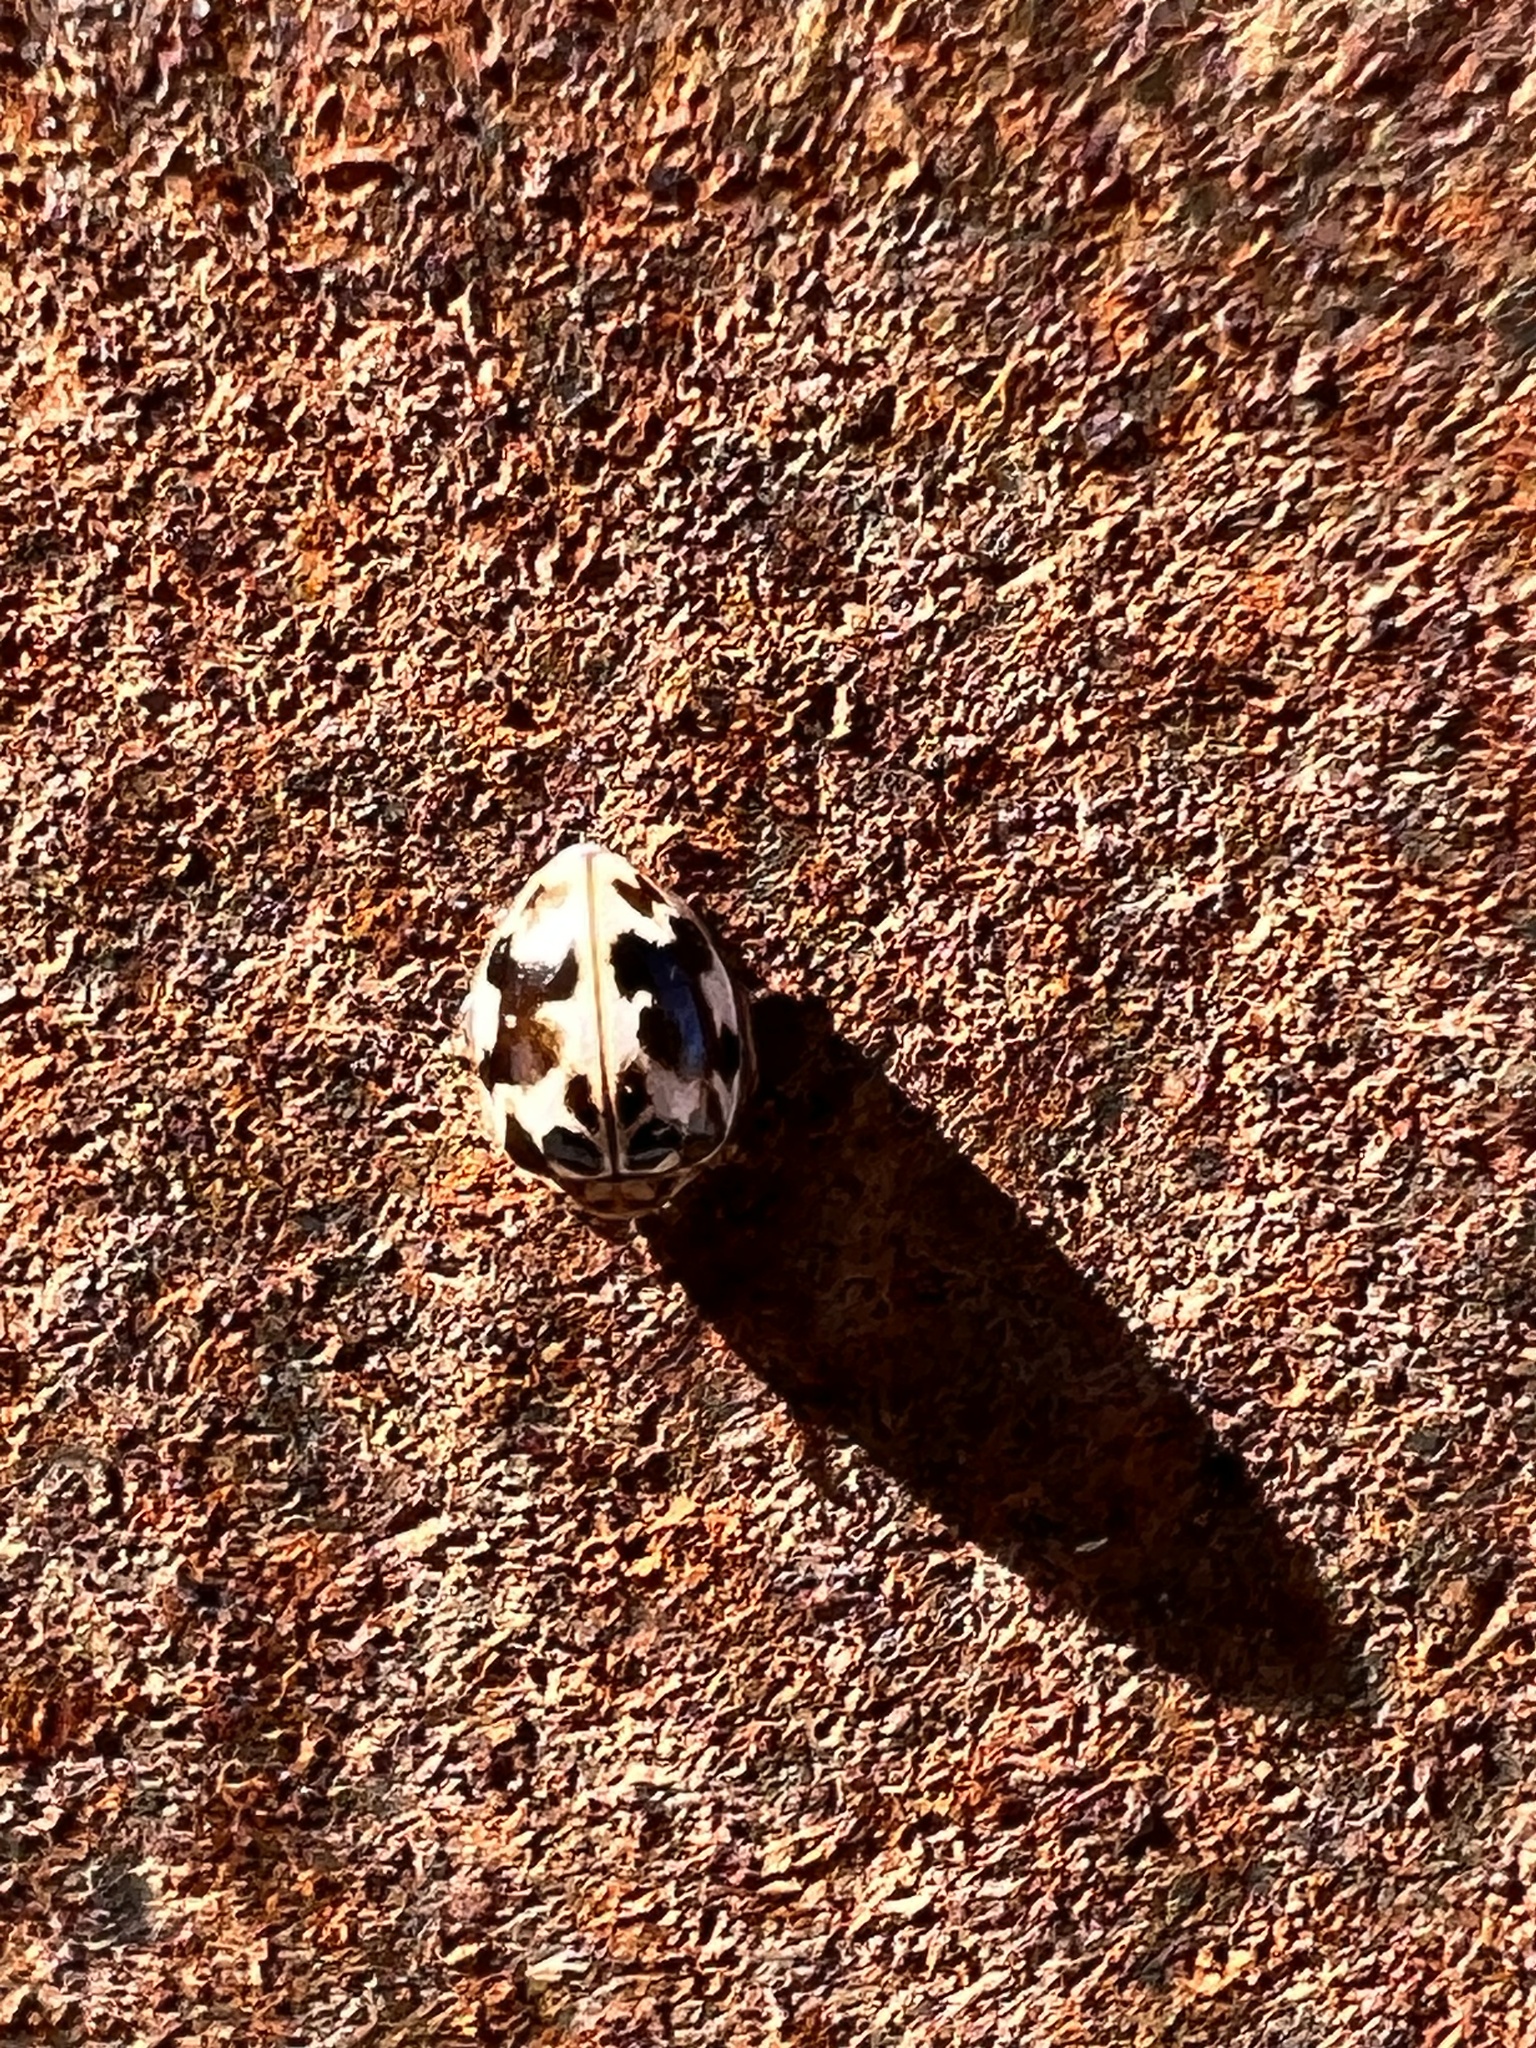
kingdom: Animalia
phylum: Arthropoda
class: Insecta
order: Coleoptera
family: Coccinellidae
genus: Psyllobora
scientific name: Psyllobora vigintimaculata
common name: Ladybird beetle
